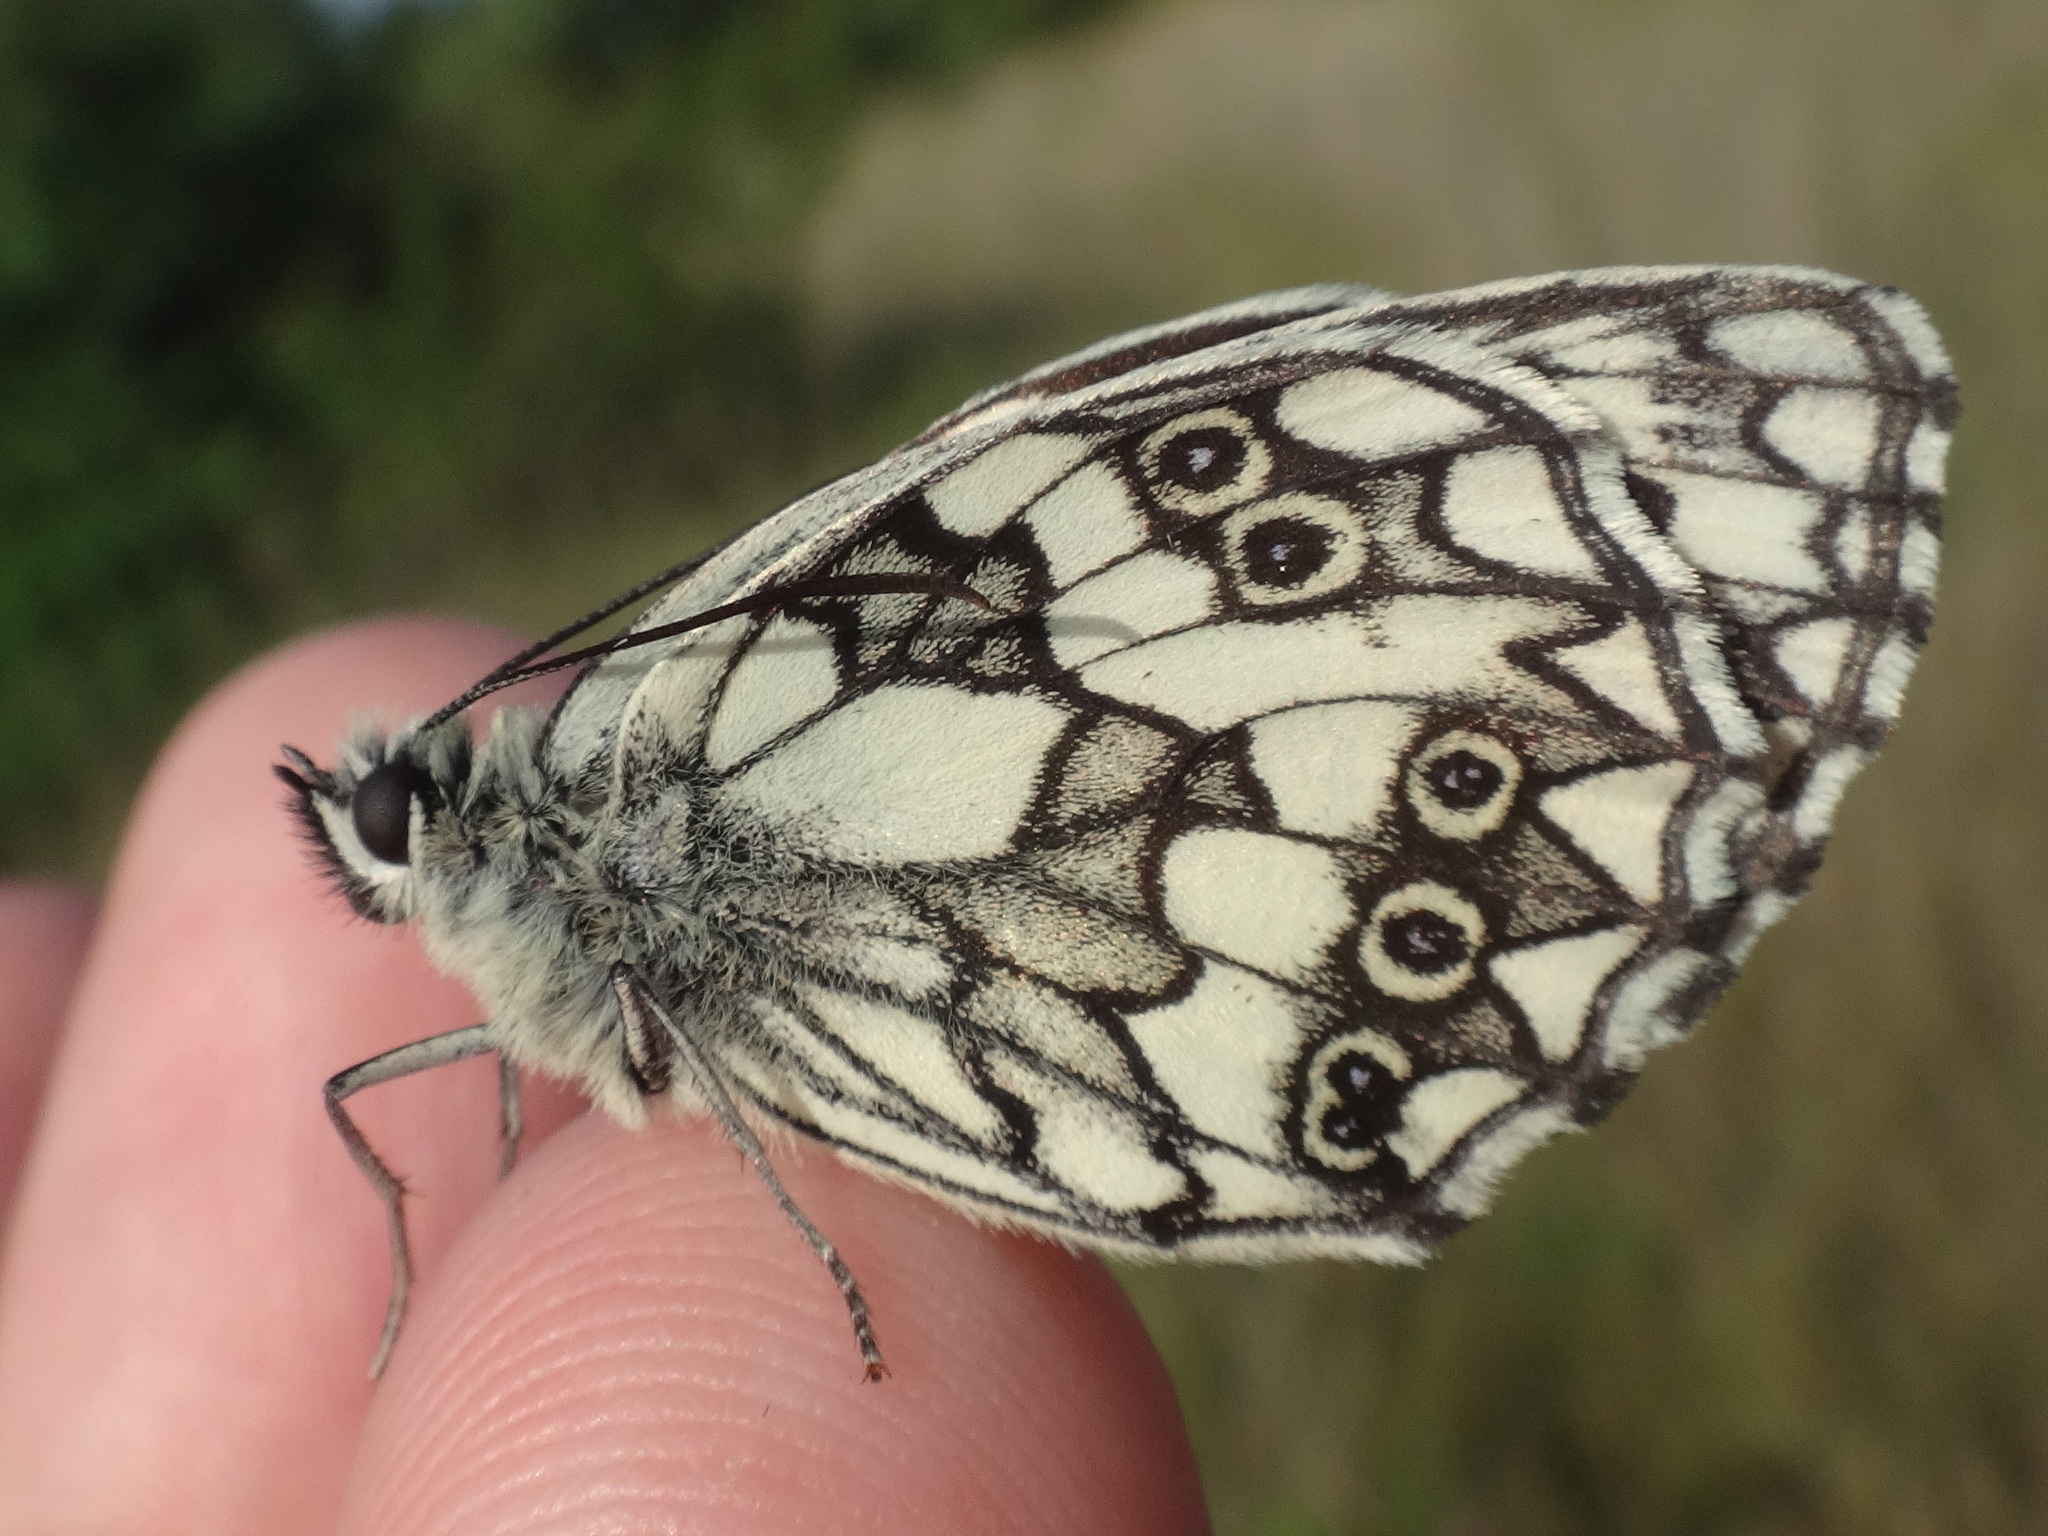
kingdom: Animalia
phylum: Arthropoda
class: Insecta
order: Lepidoptera
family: Nymphalidae
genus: Melanargia
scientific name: Melanargia galathea
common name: Marbled white
